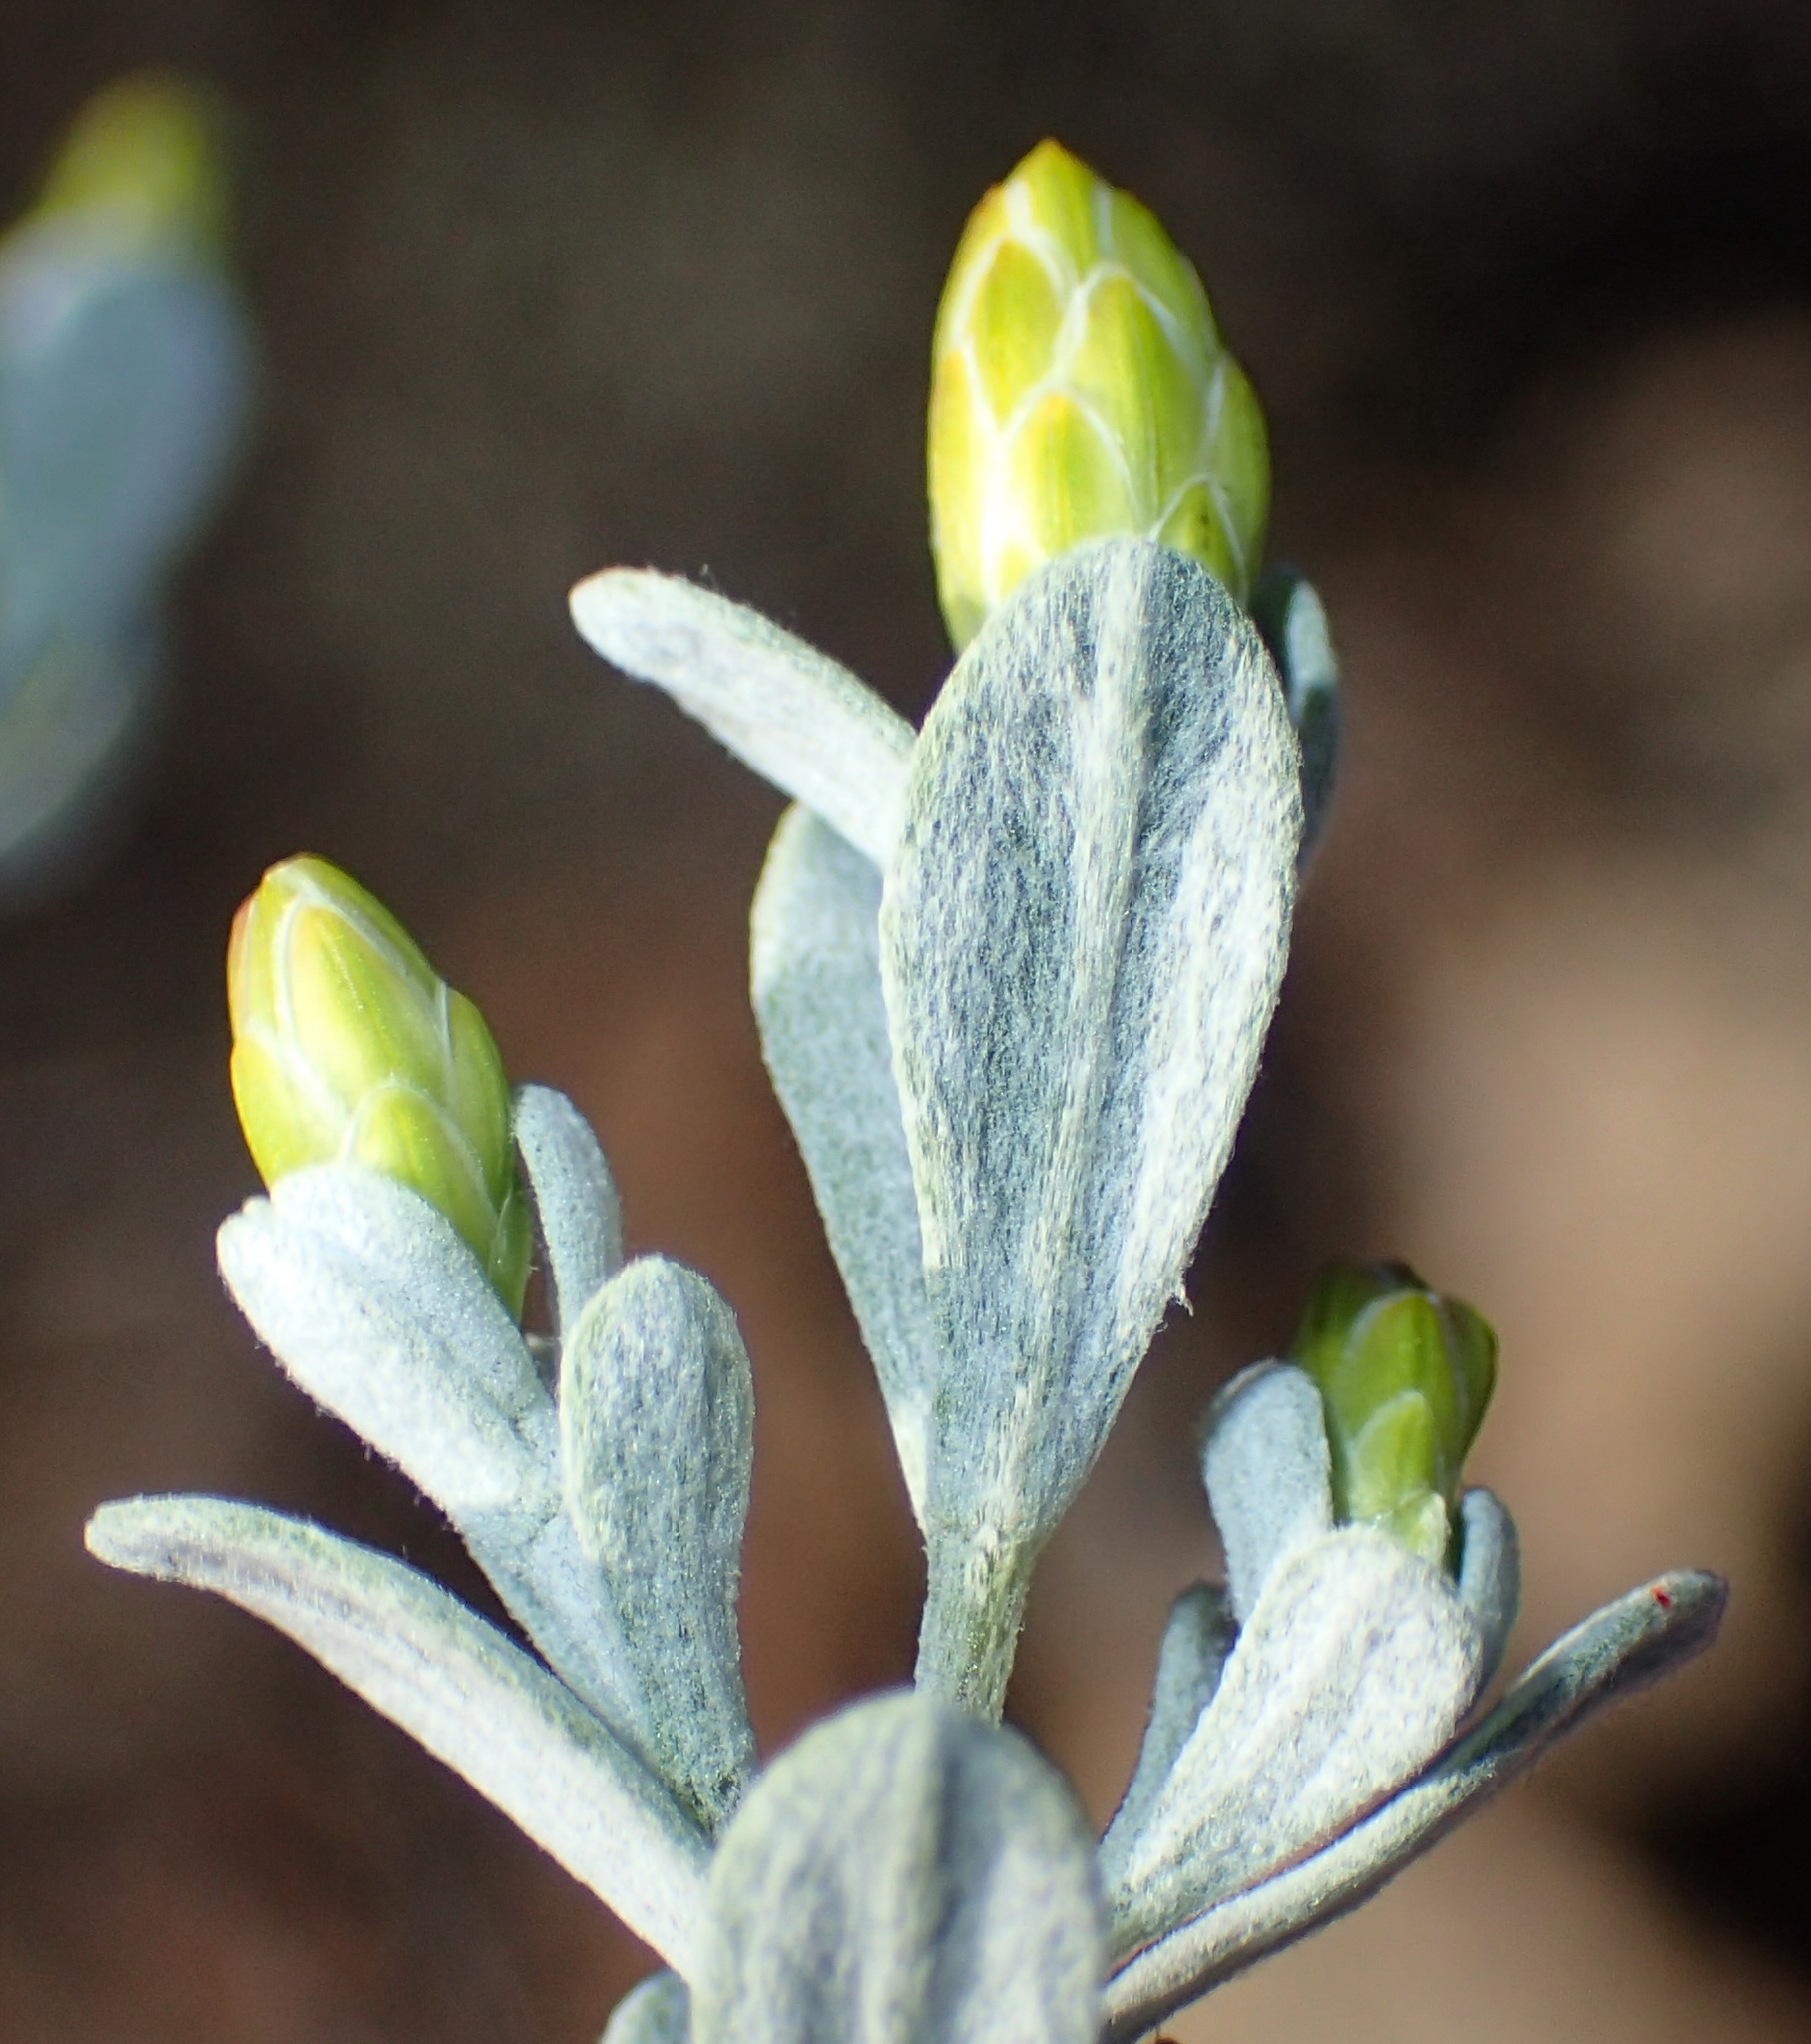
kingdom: Plantae
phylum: Tracheophyta
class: Magnoliopsida
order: Asterales
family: Asteraceae
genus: Pteronia
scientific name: Pteronia incana
